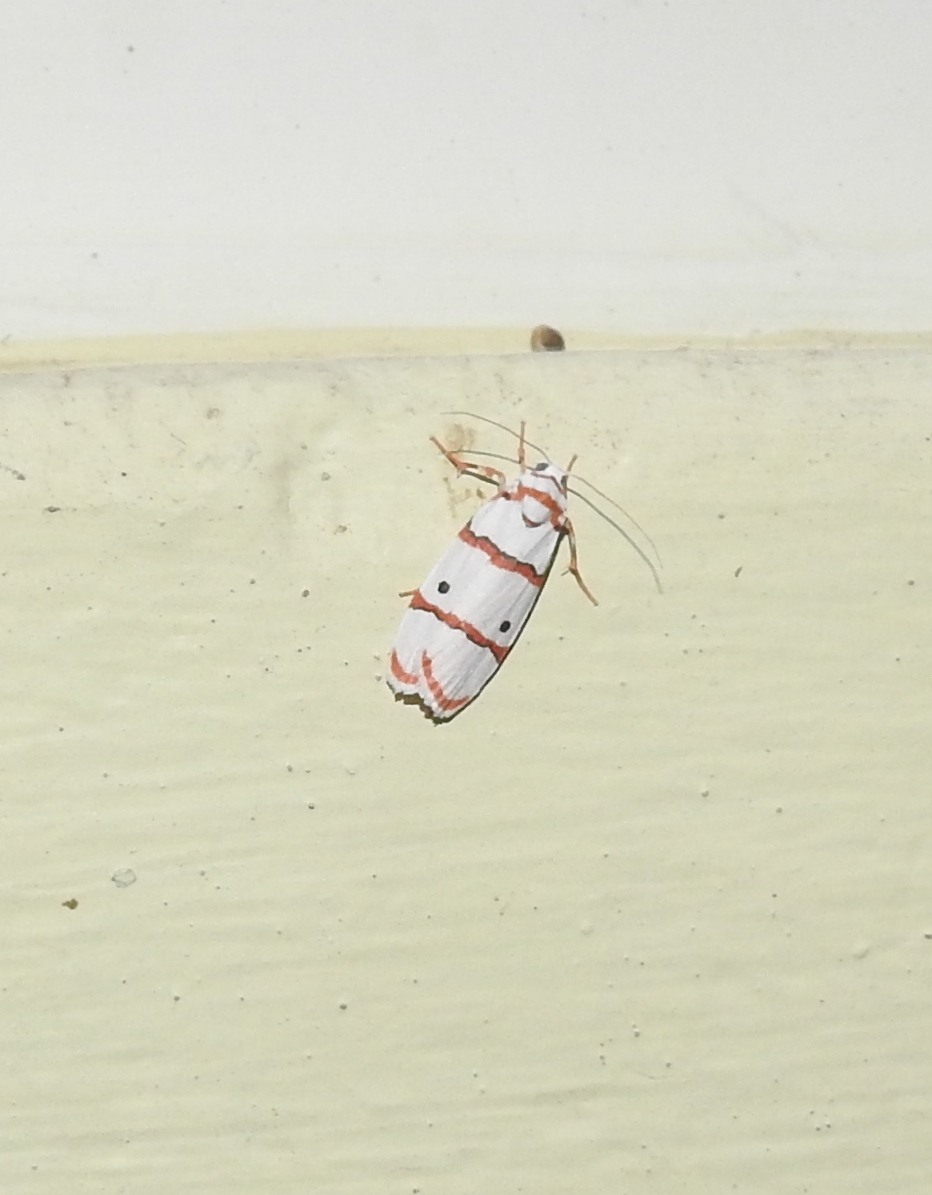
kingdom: Animalia
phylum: Arthropoda
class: Insecta
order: Lepidoptera
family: Erebidae
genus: Cyana
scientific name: Cyana peregrina
